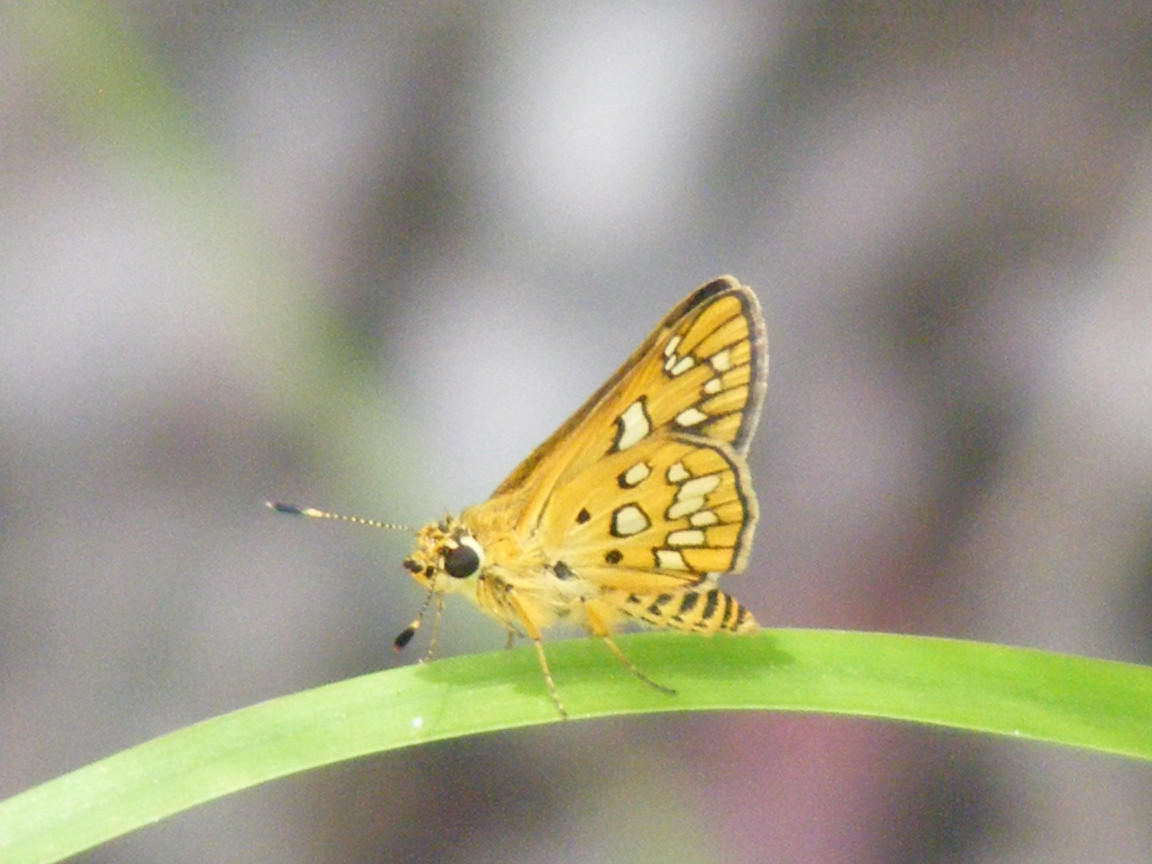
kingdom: Animalia
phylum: Arthropoda
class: Insecta
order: Lepidoptera
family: Hesperiidae
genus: Dotta
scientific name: Dotta
